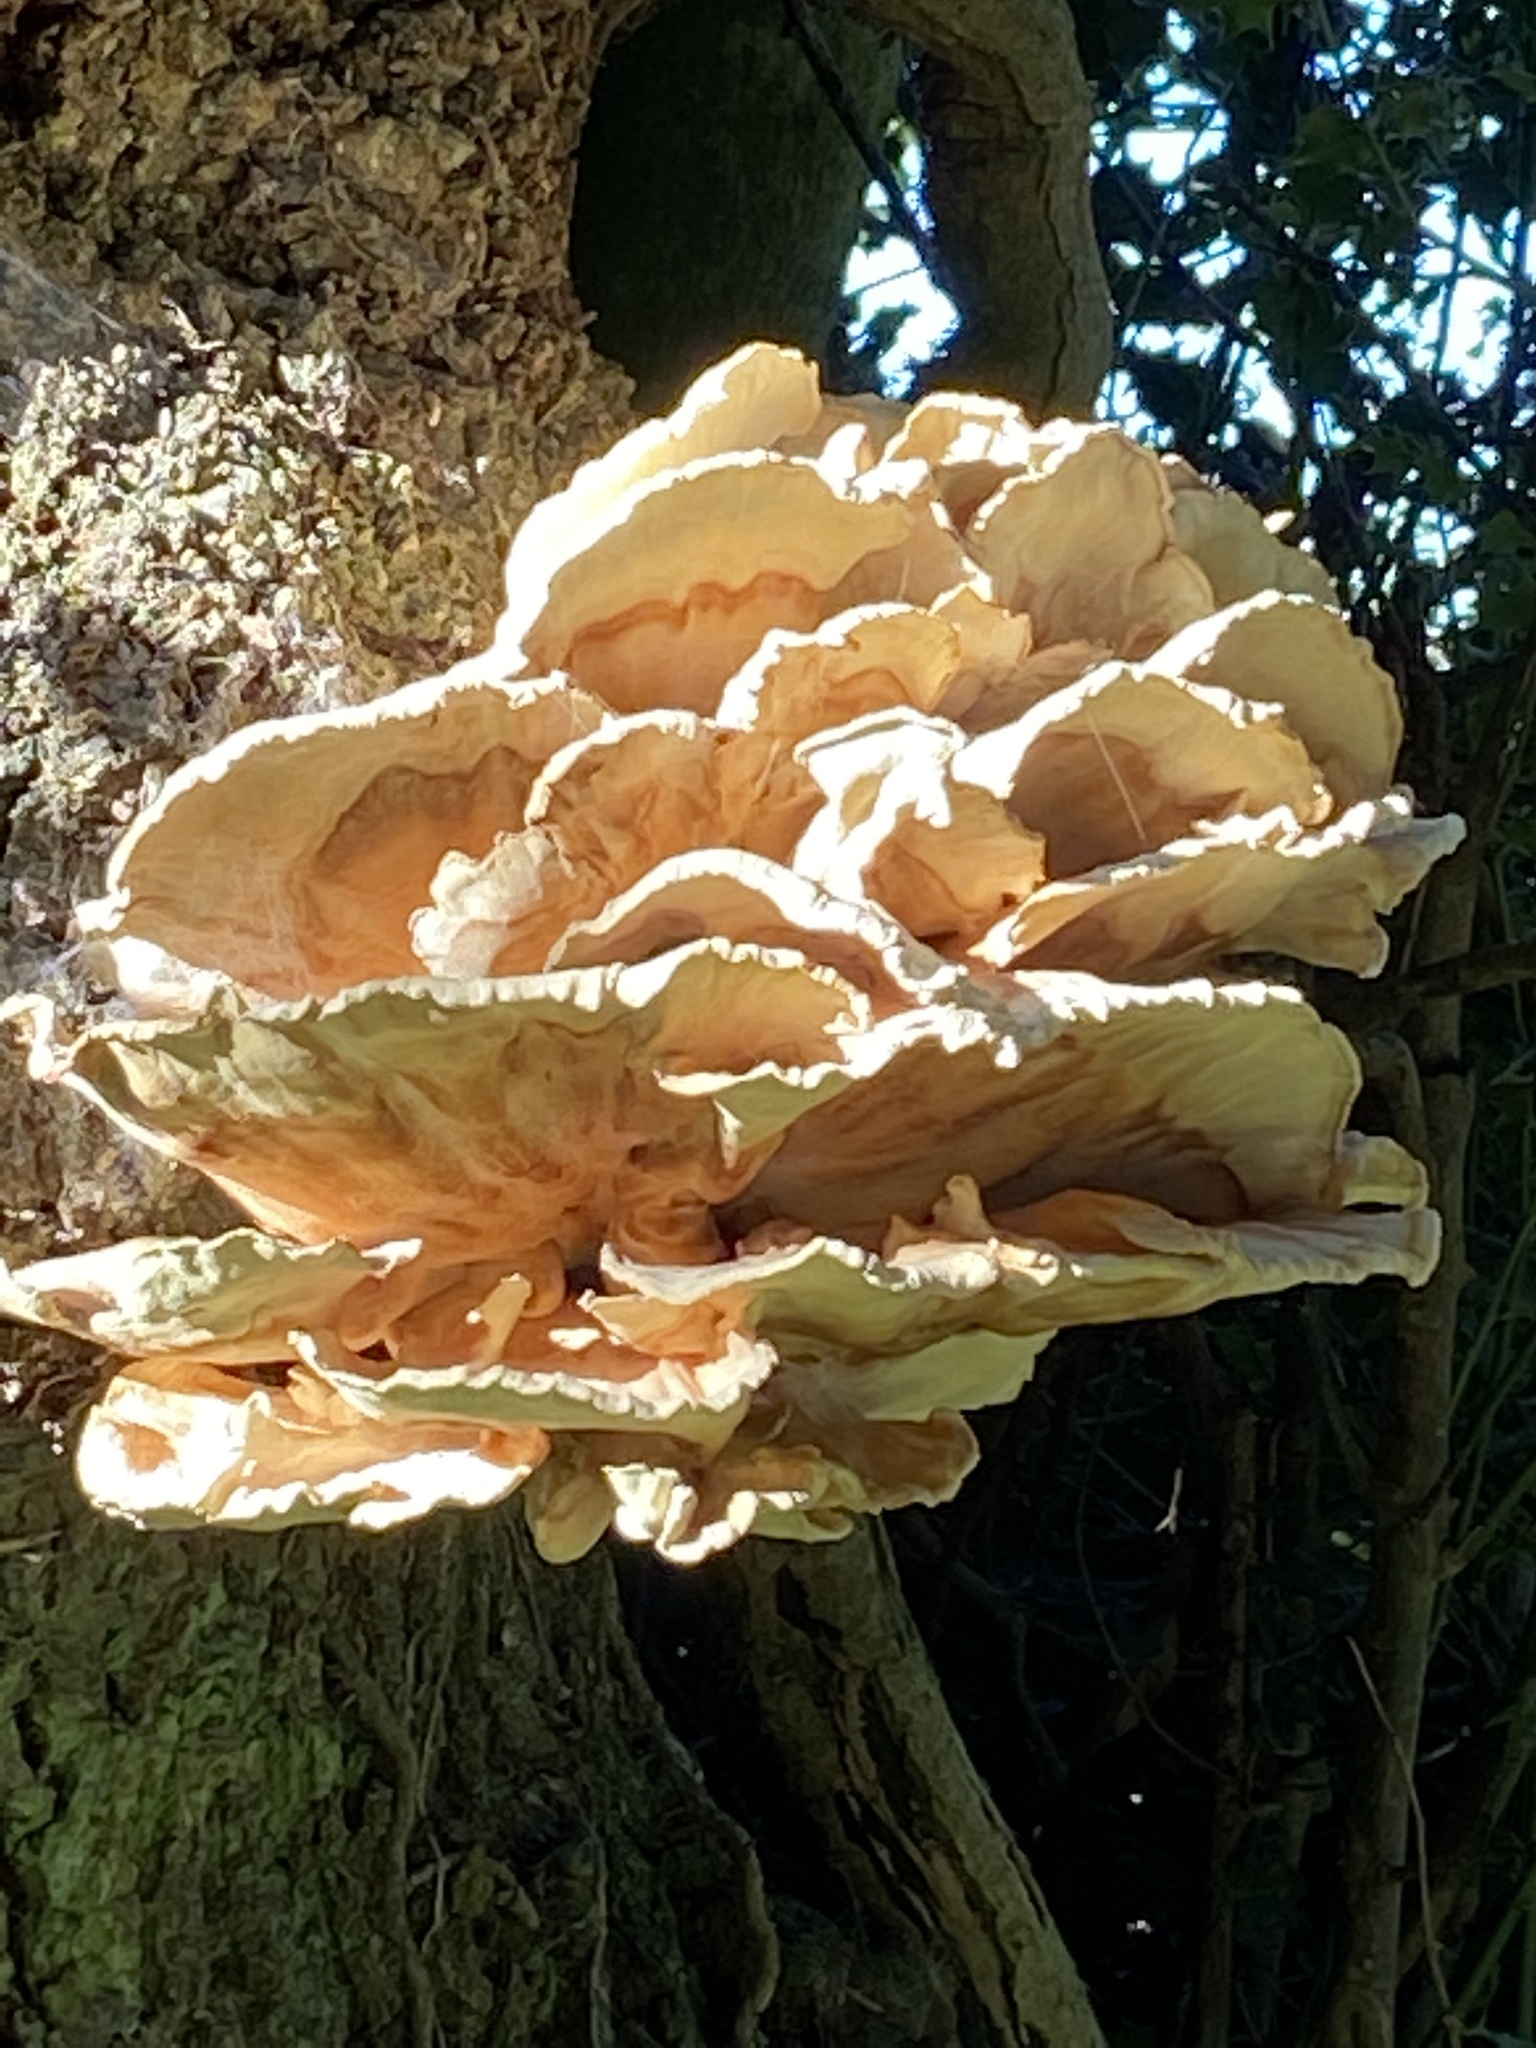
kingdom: Fungi
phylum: Basidiomycota
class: Agaricomycetes
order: Polyporales
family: Laetiporaceae
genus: Laetiporus
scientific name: Laetiporus sulphureus
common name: Chicken of the woods
